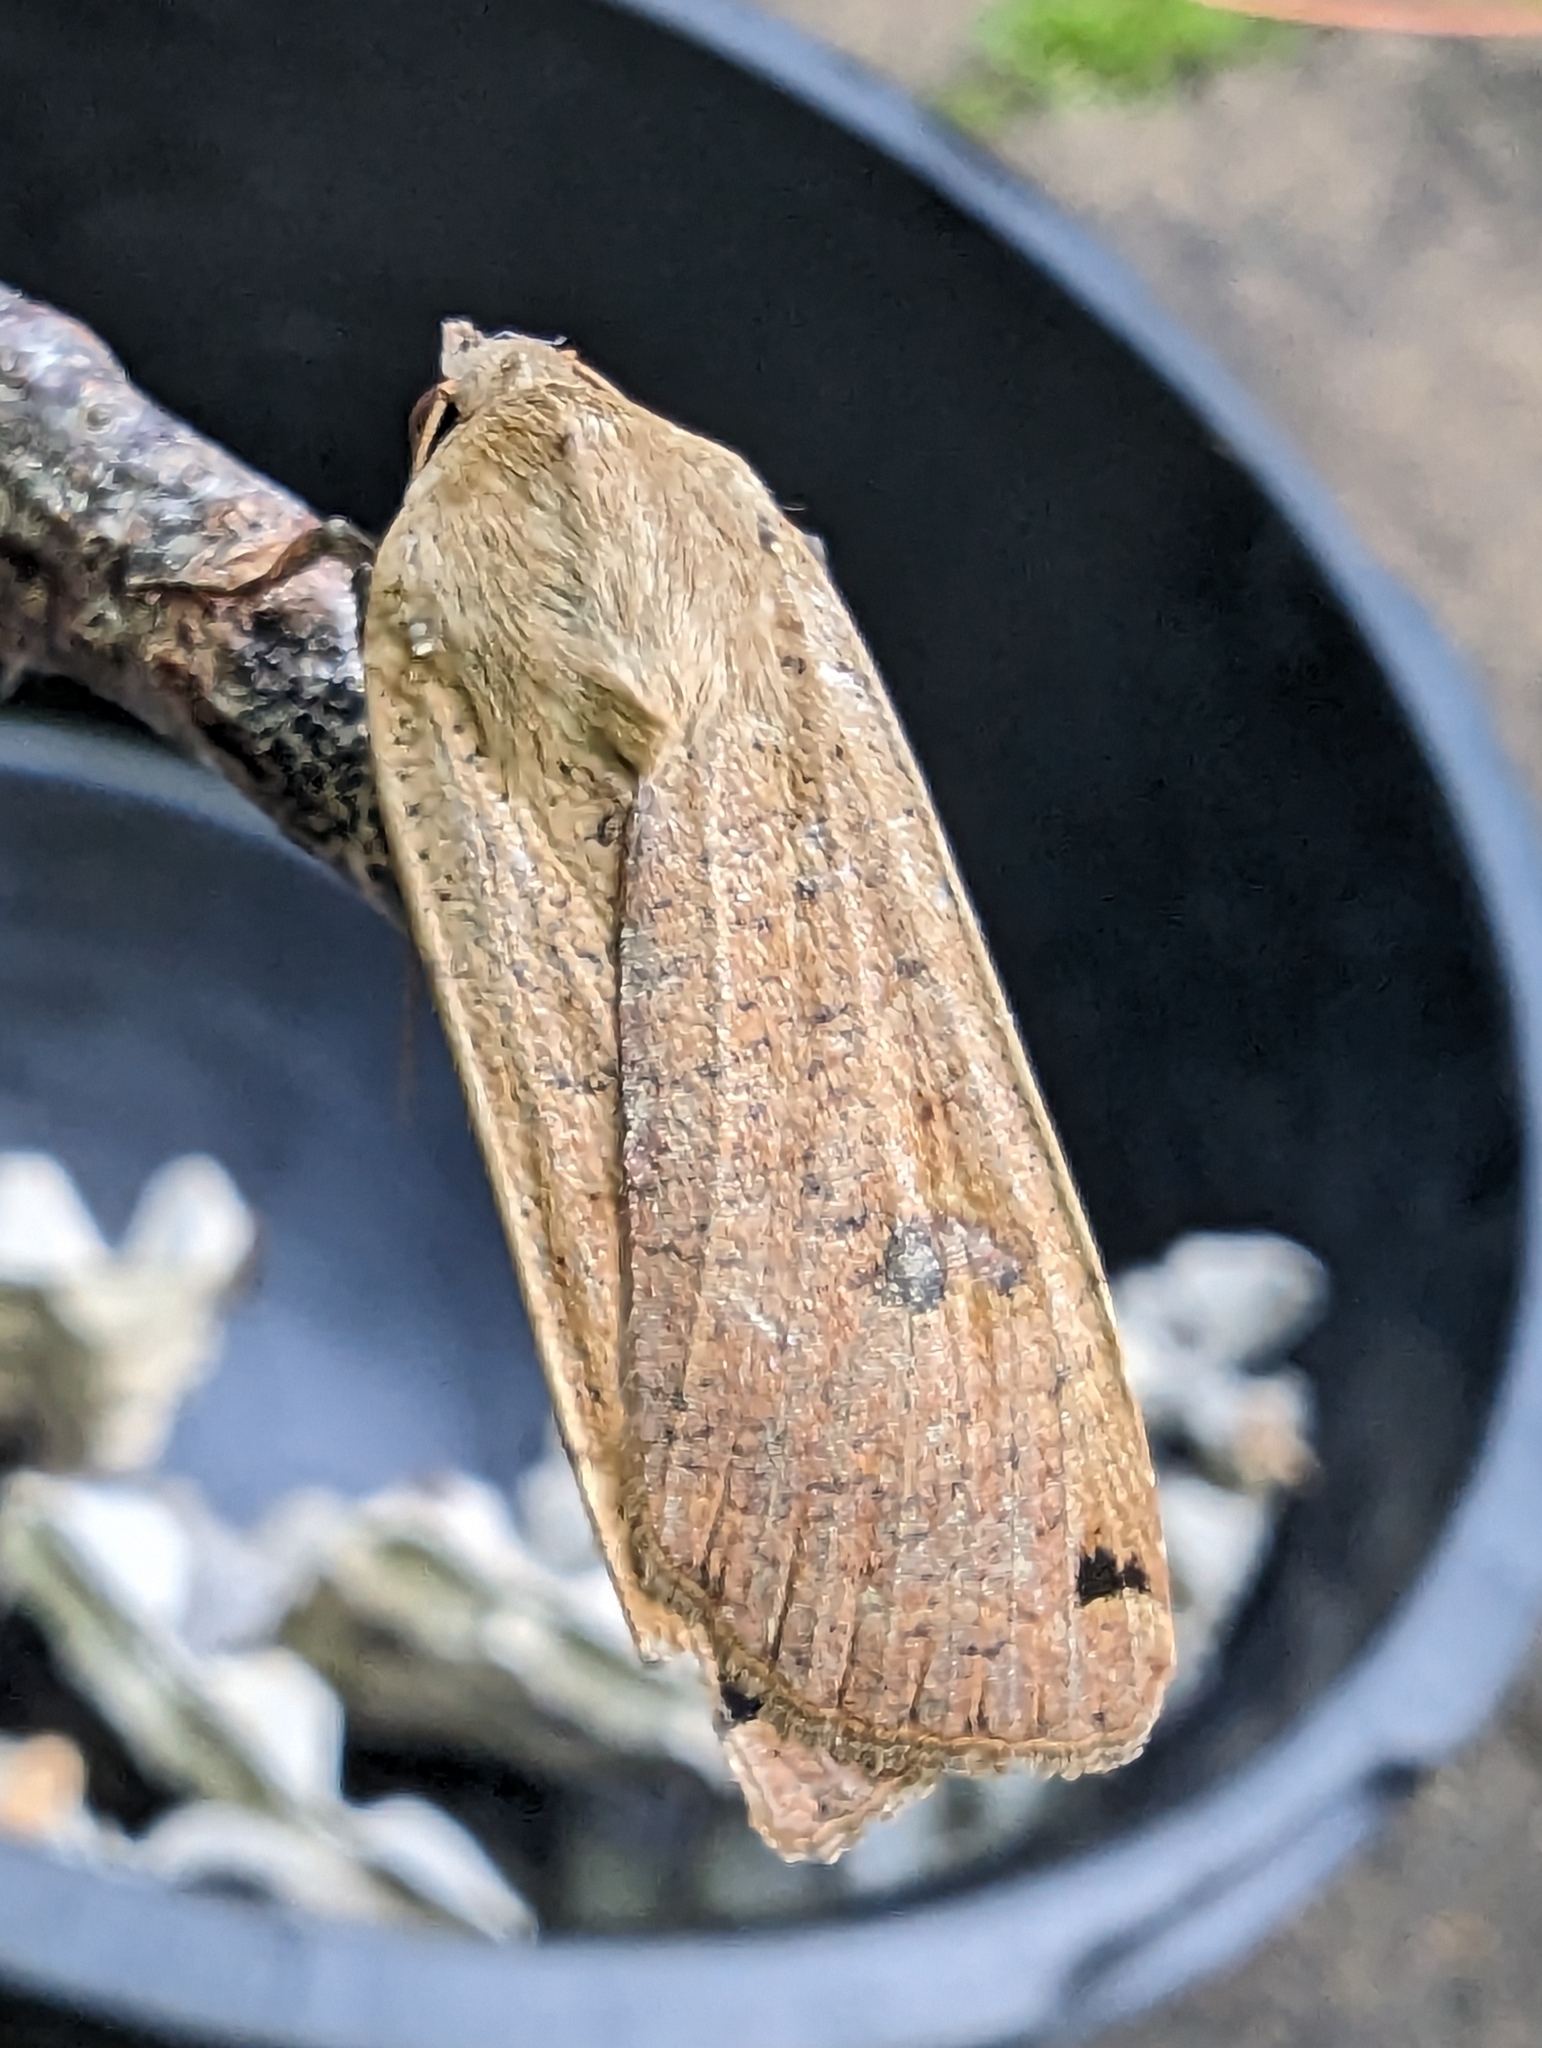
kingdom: Animalia
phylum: Arthropoda
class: Insecta
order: Lepidoptera
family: Noctuidae
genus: Noctua
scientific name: Noctua pronuba
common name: Large yellow underwing
